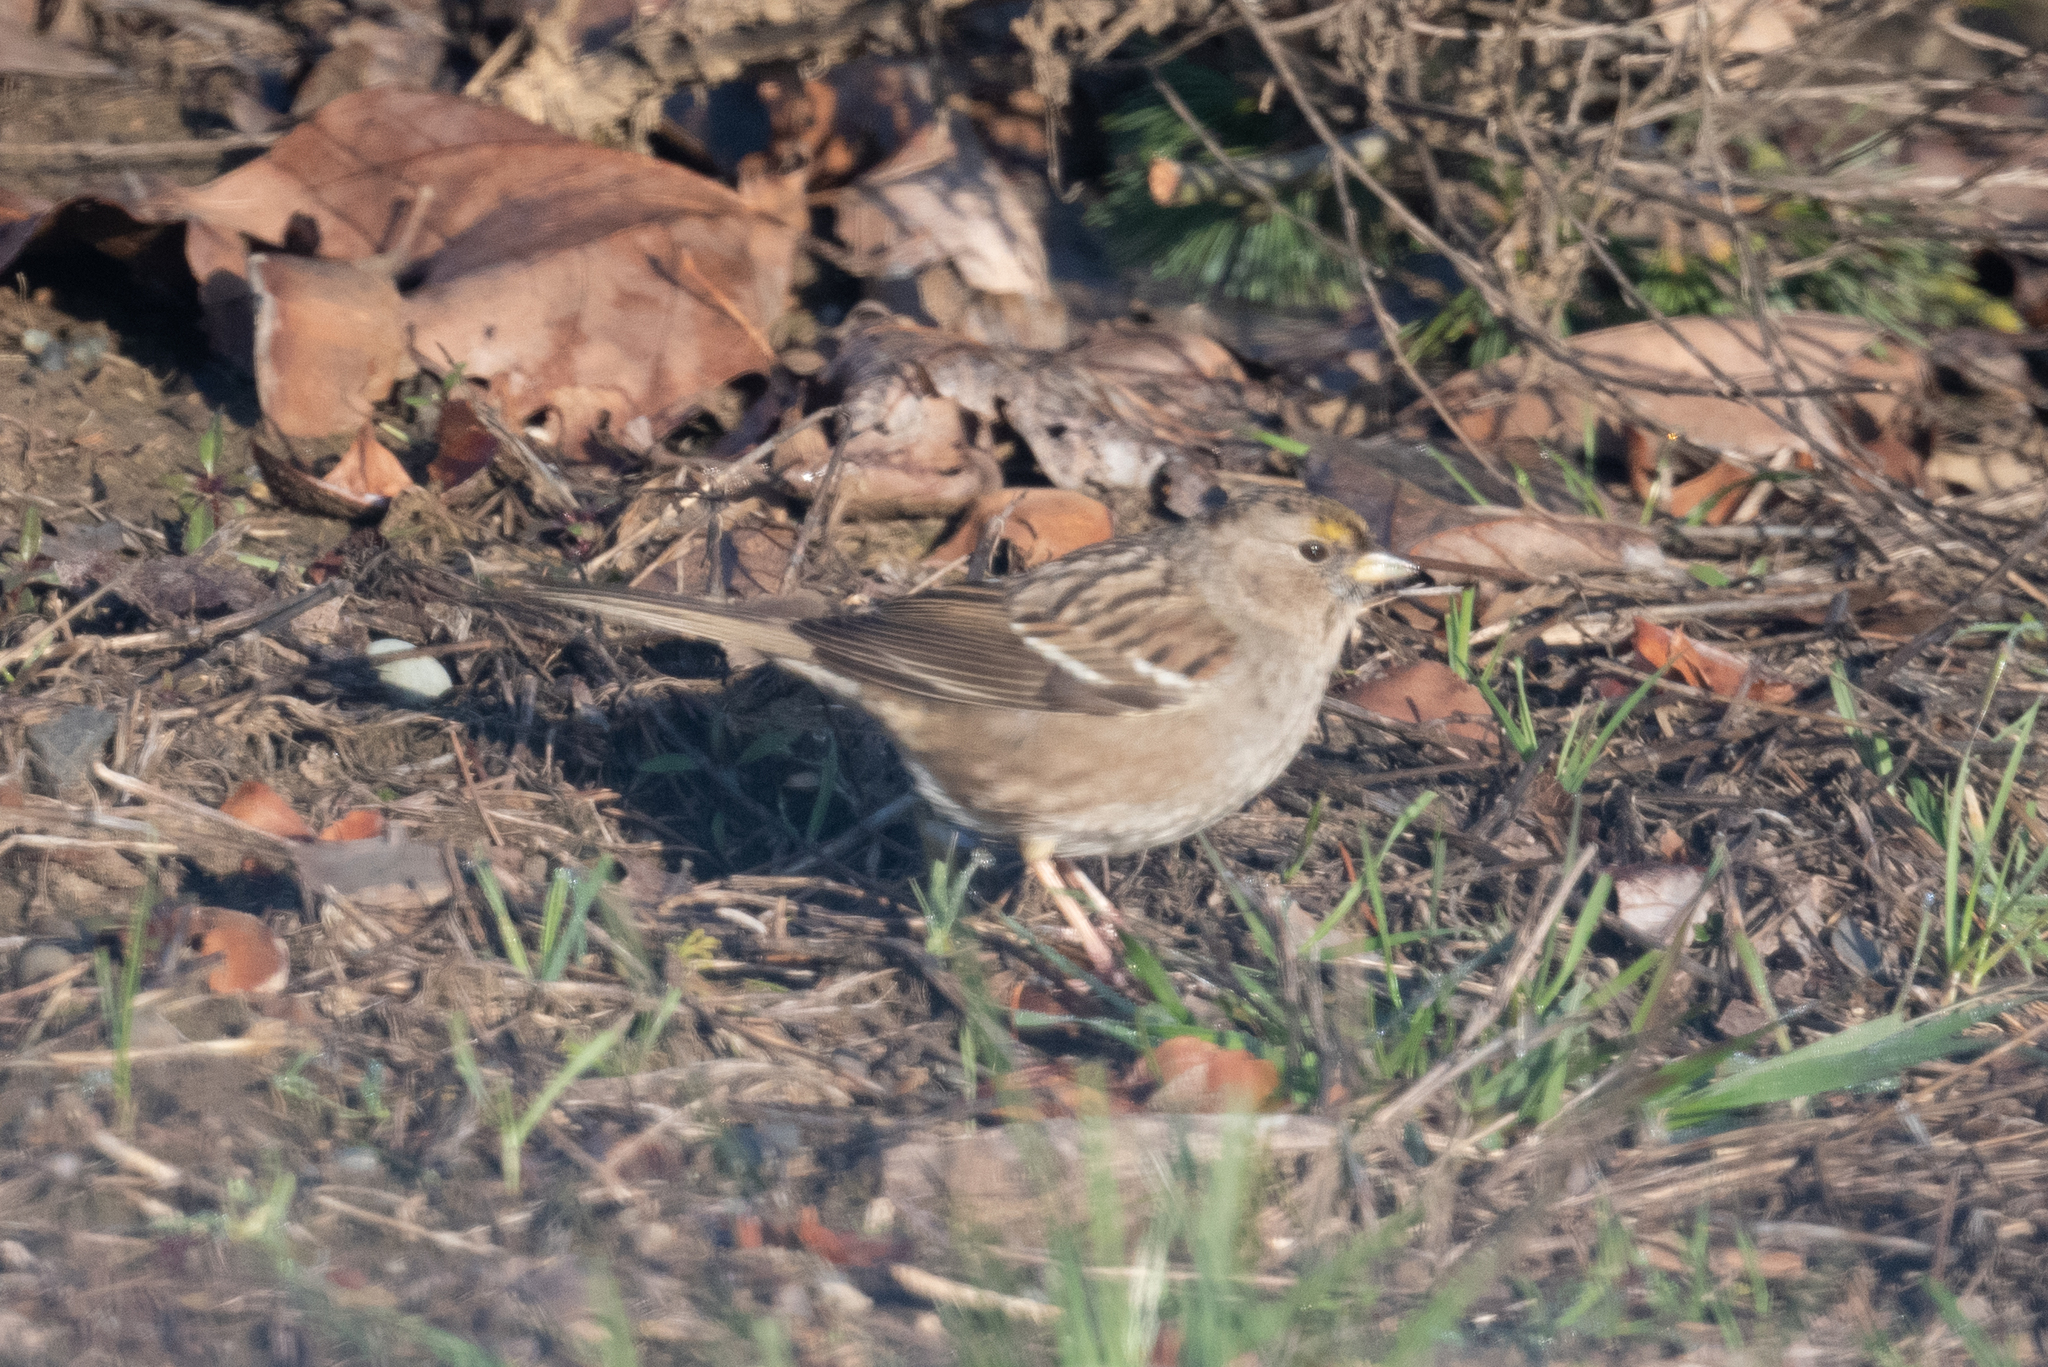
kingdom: Animalia
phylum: Chordata
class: Aves
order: Passeriformes
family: Passerellidae
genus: Zonotrichia
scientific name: Zonotrichia atricapilla
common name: Golden-crowned sparrow
